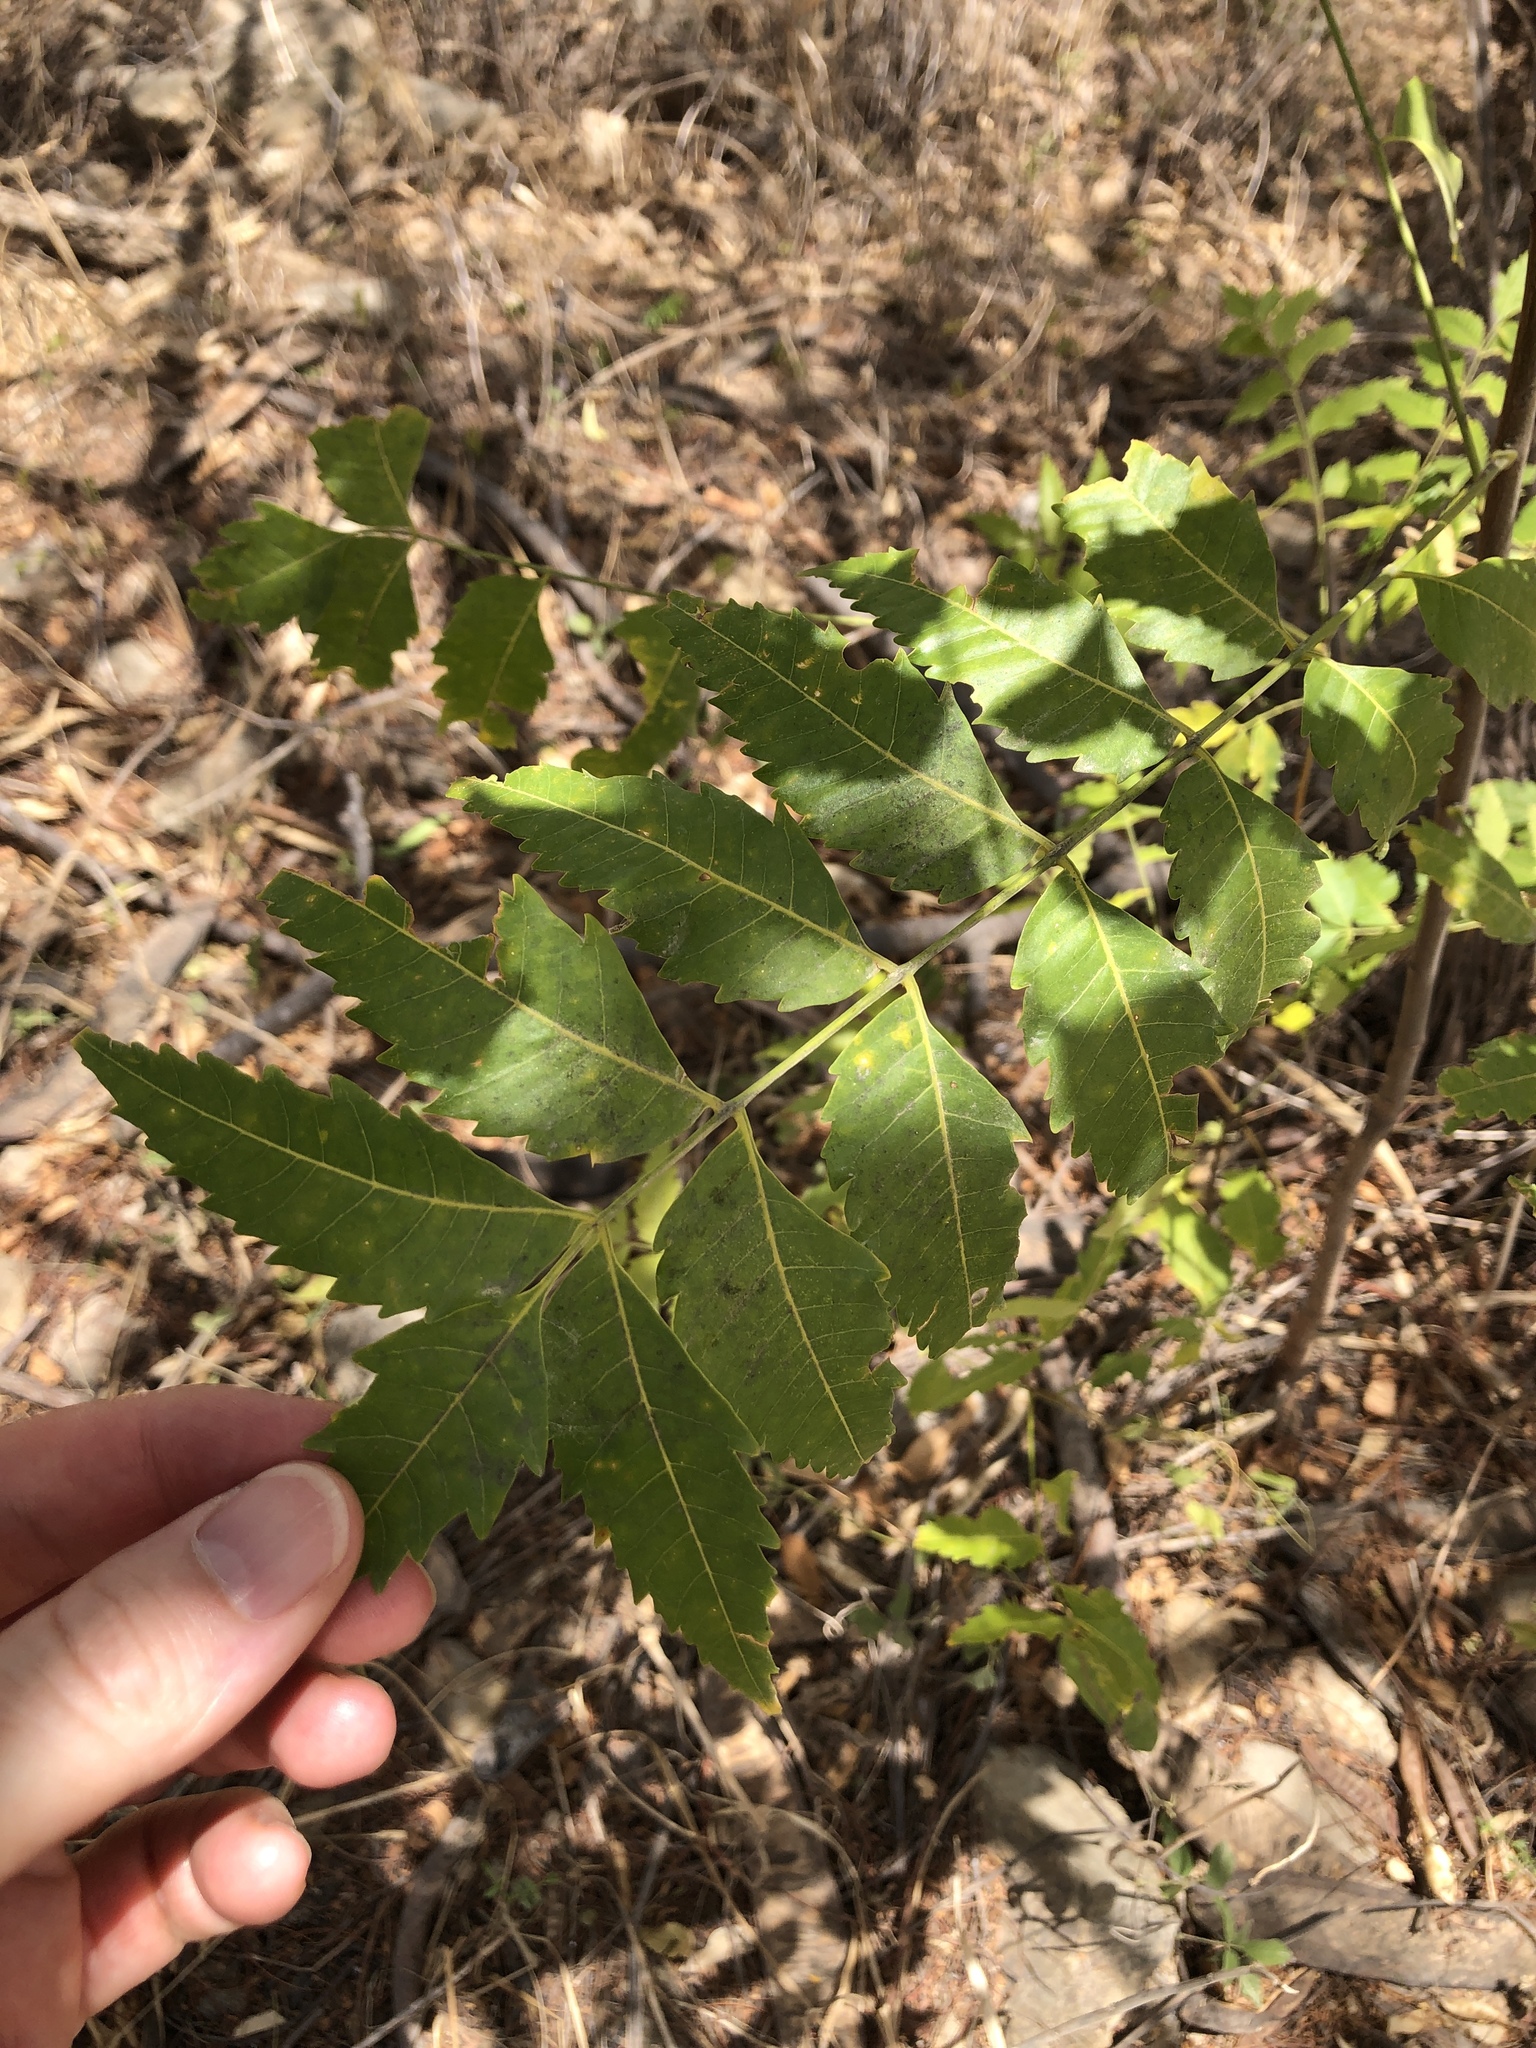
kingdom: Plantae
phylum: Tracheophyta
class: Magnoliopsida
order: Sapindales
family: Meliaceae
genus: Azadirachta
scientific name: Azadirachta indica
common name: Neem
